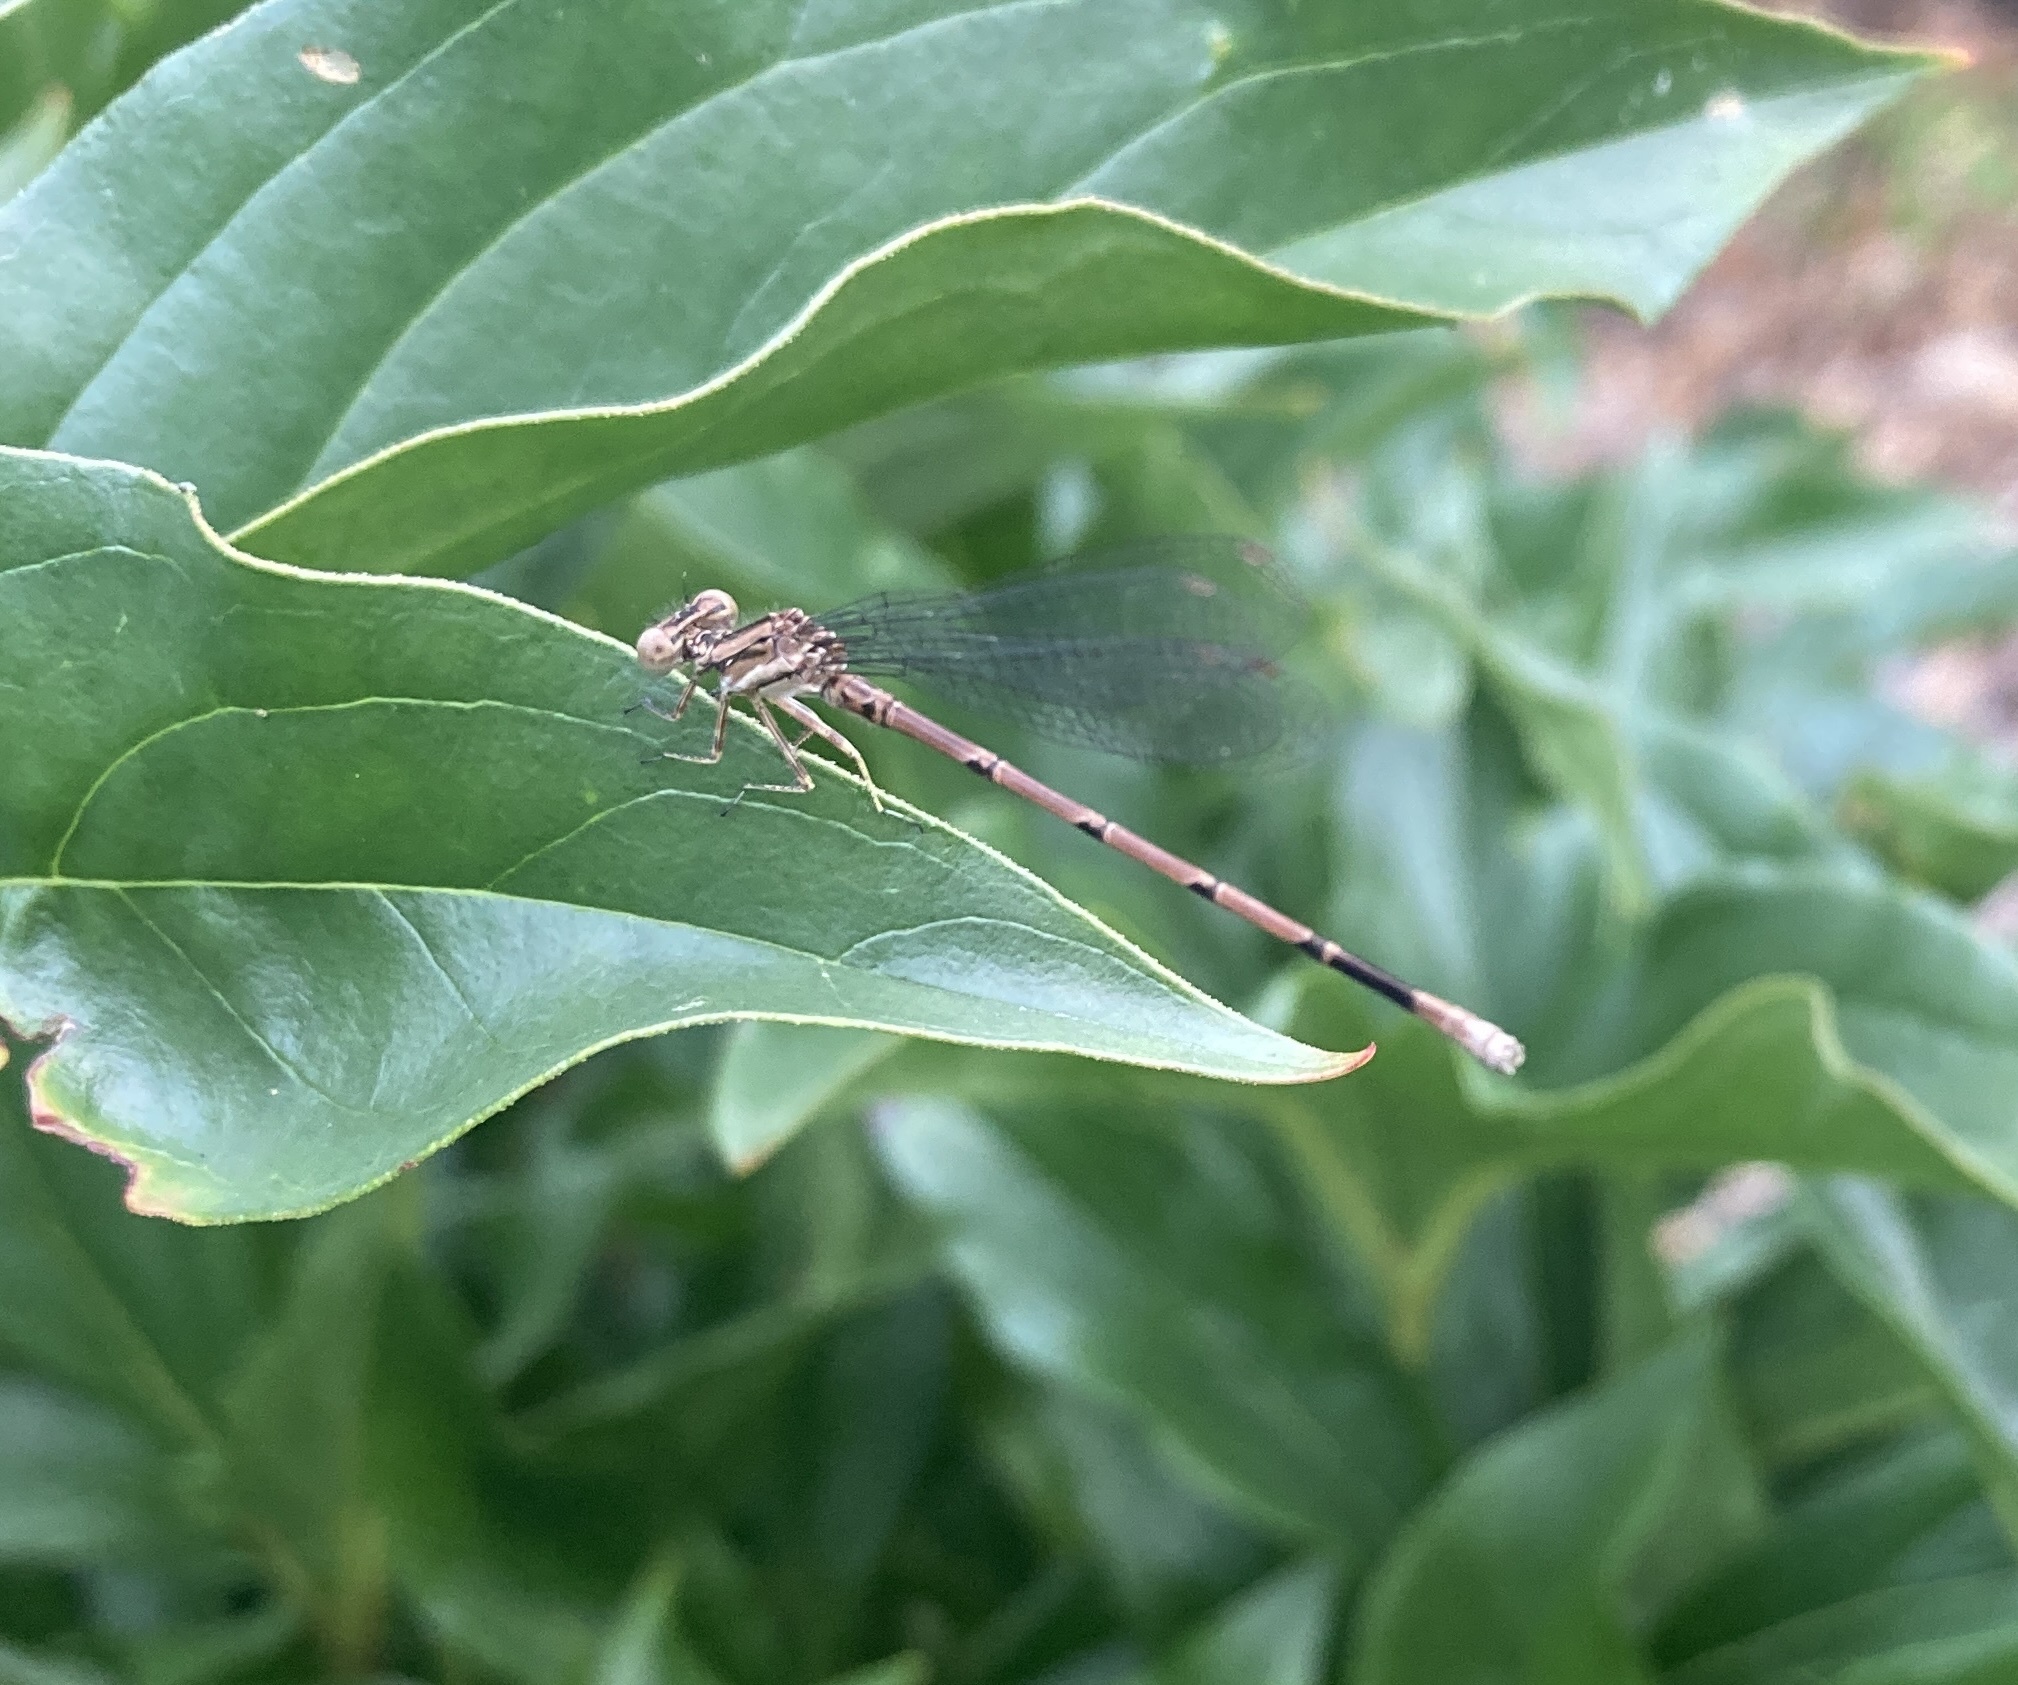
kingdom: Animalia
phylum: Arthropoda
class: Insecta
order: Odonata
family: Coenagrionidae
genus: Argia
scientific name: Argia fumipennis
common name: Variable dancer
